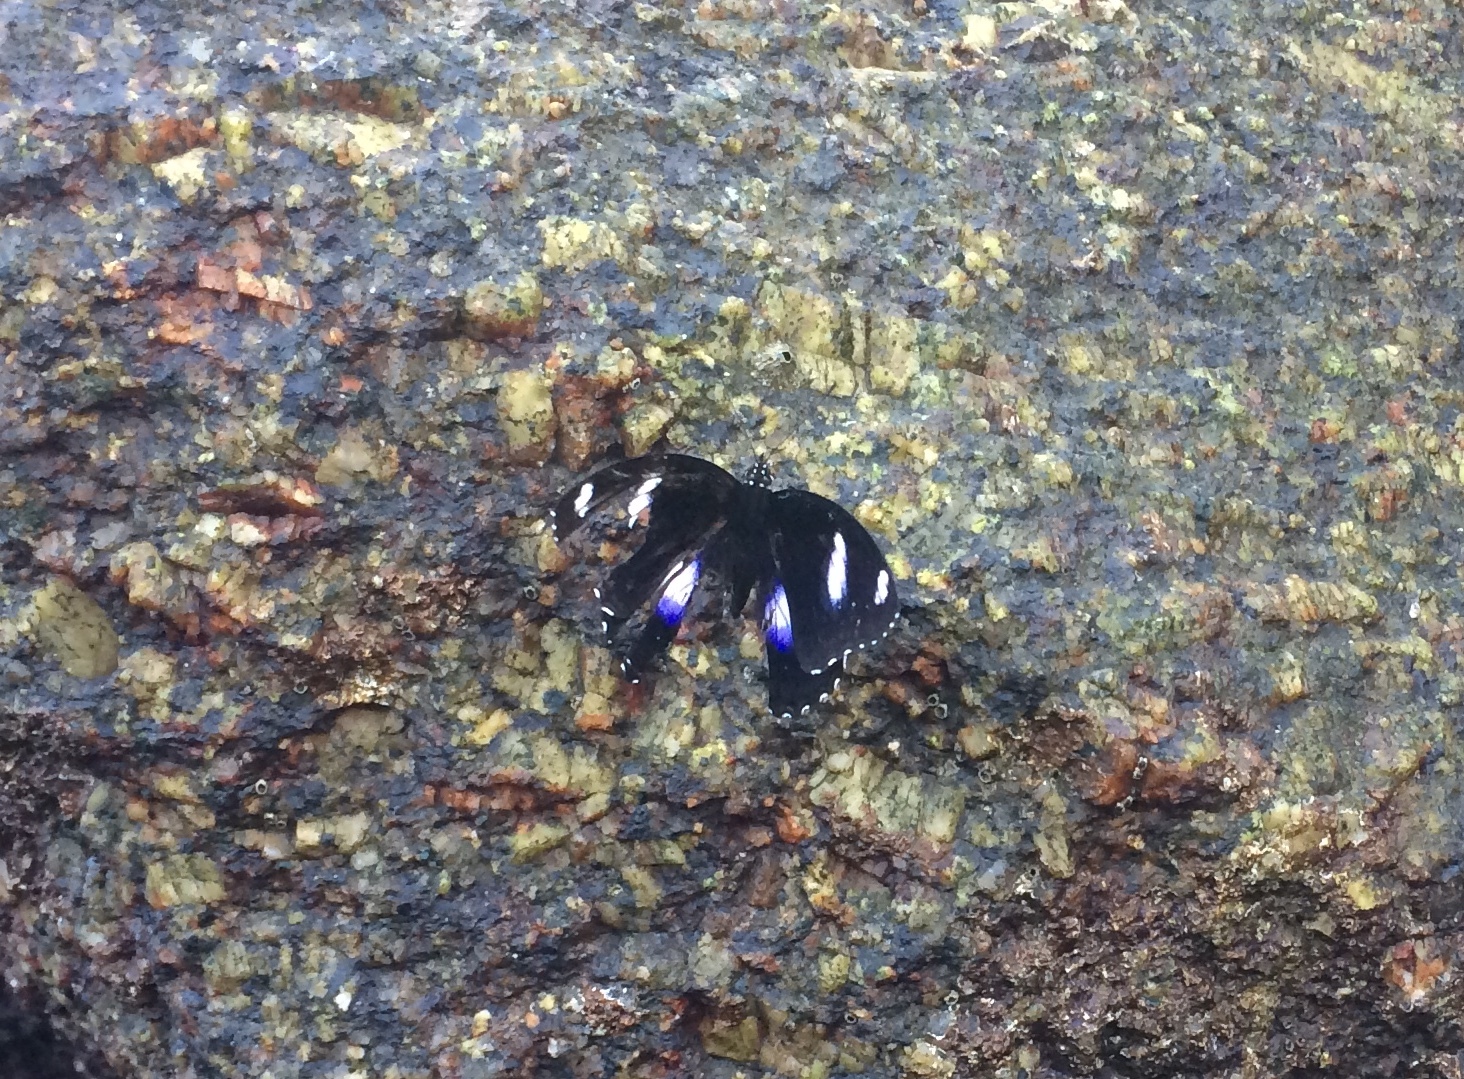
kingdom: Animalia
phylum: Arthropoda
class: Insecta
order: Lepidoptera
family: Nymphalidae
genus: Hypolimnas
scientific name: Hypolimnas bolina
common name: Great eggfly
